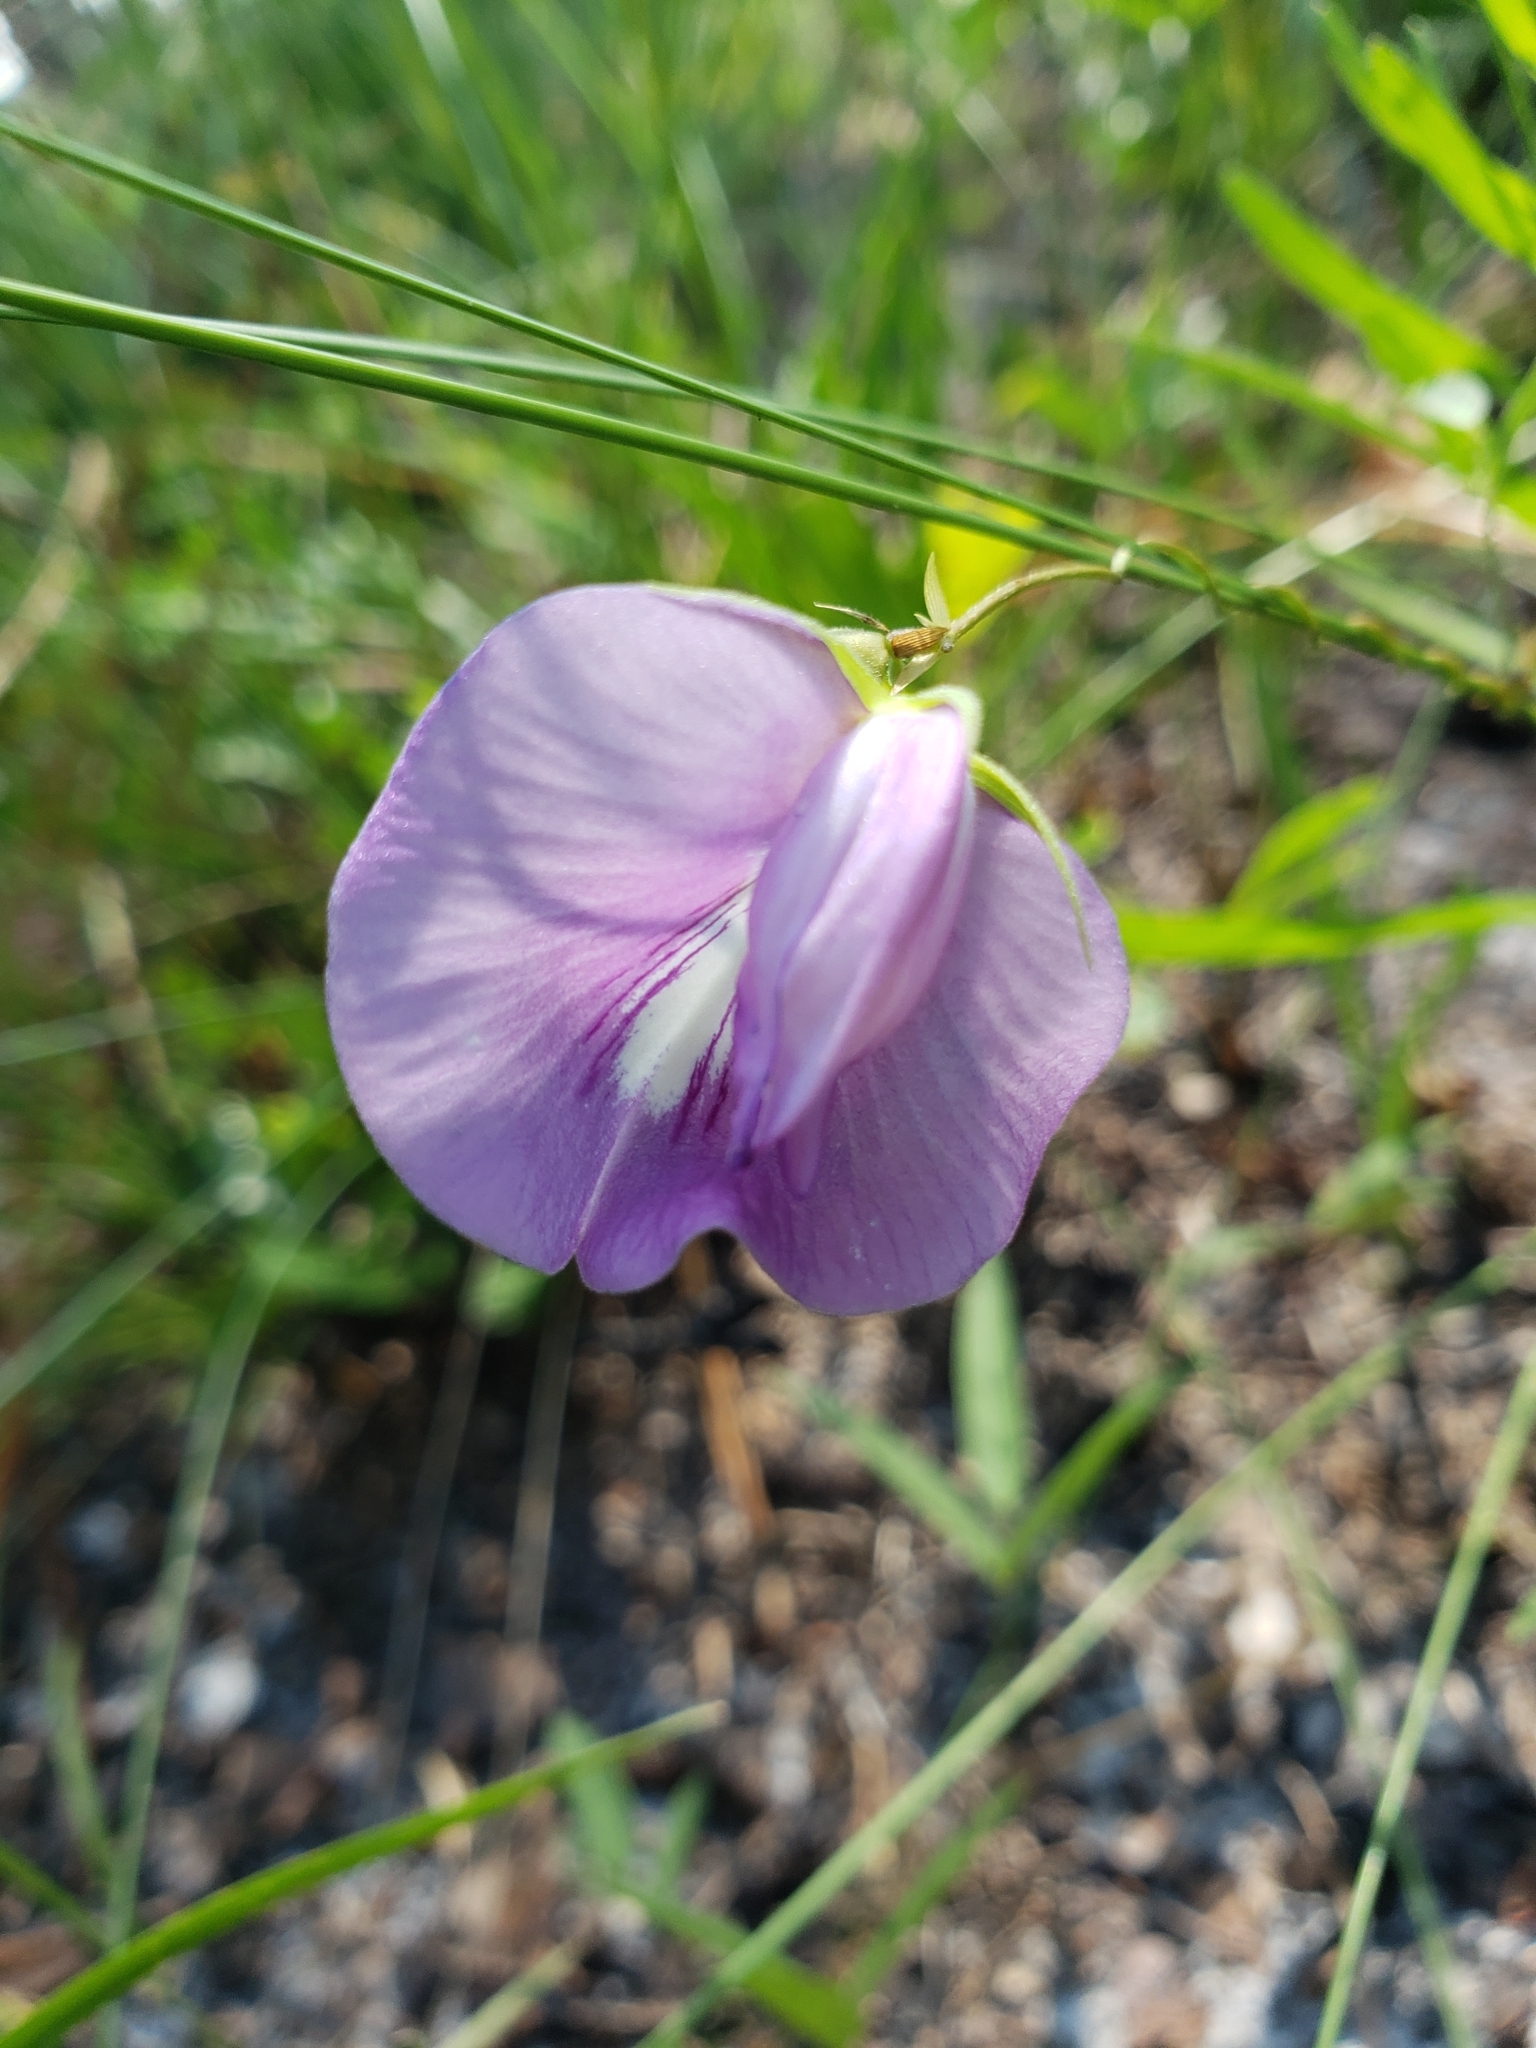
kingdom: Plantae
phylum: Tracheophyta
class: Magnoliopsida
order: Fabales
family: Fabaceae
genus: Centrosema
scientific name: Centrosema virginianum
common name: Butterfly-pea
